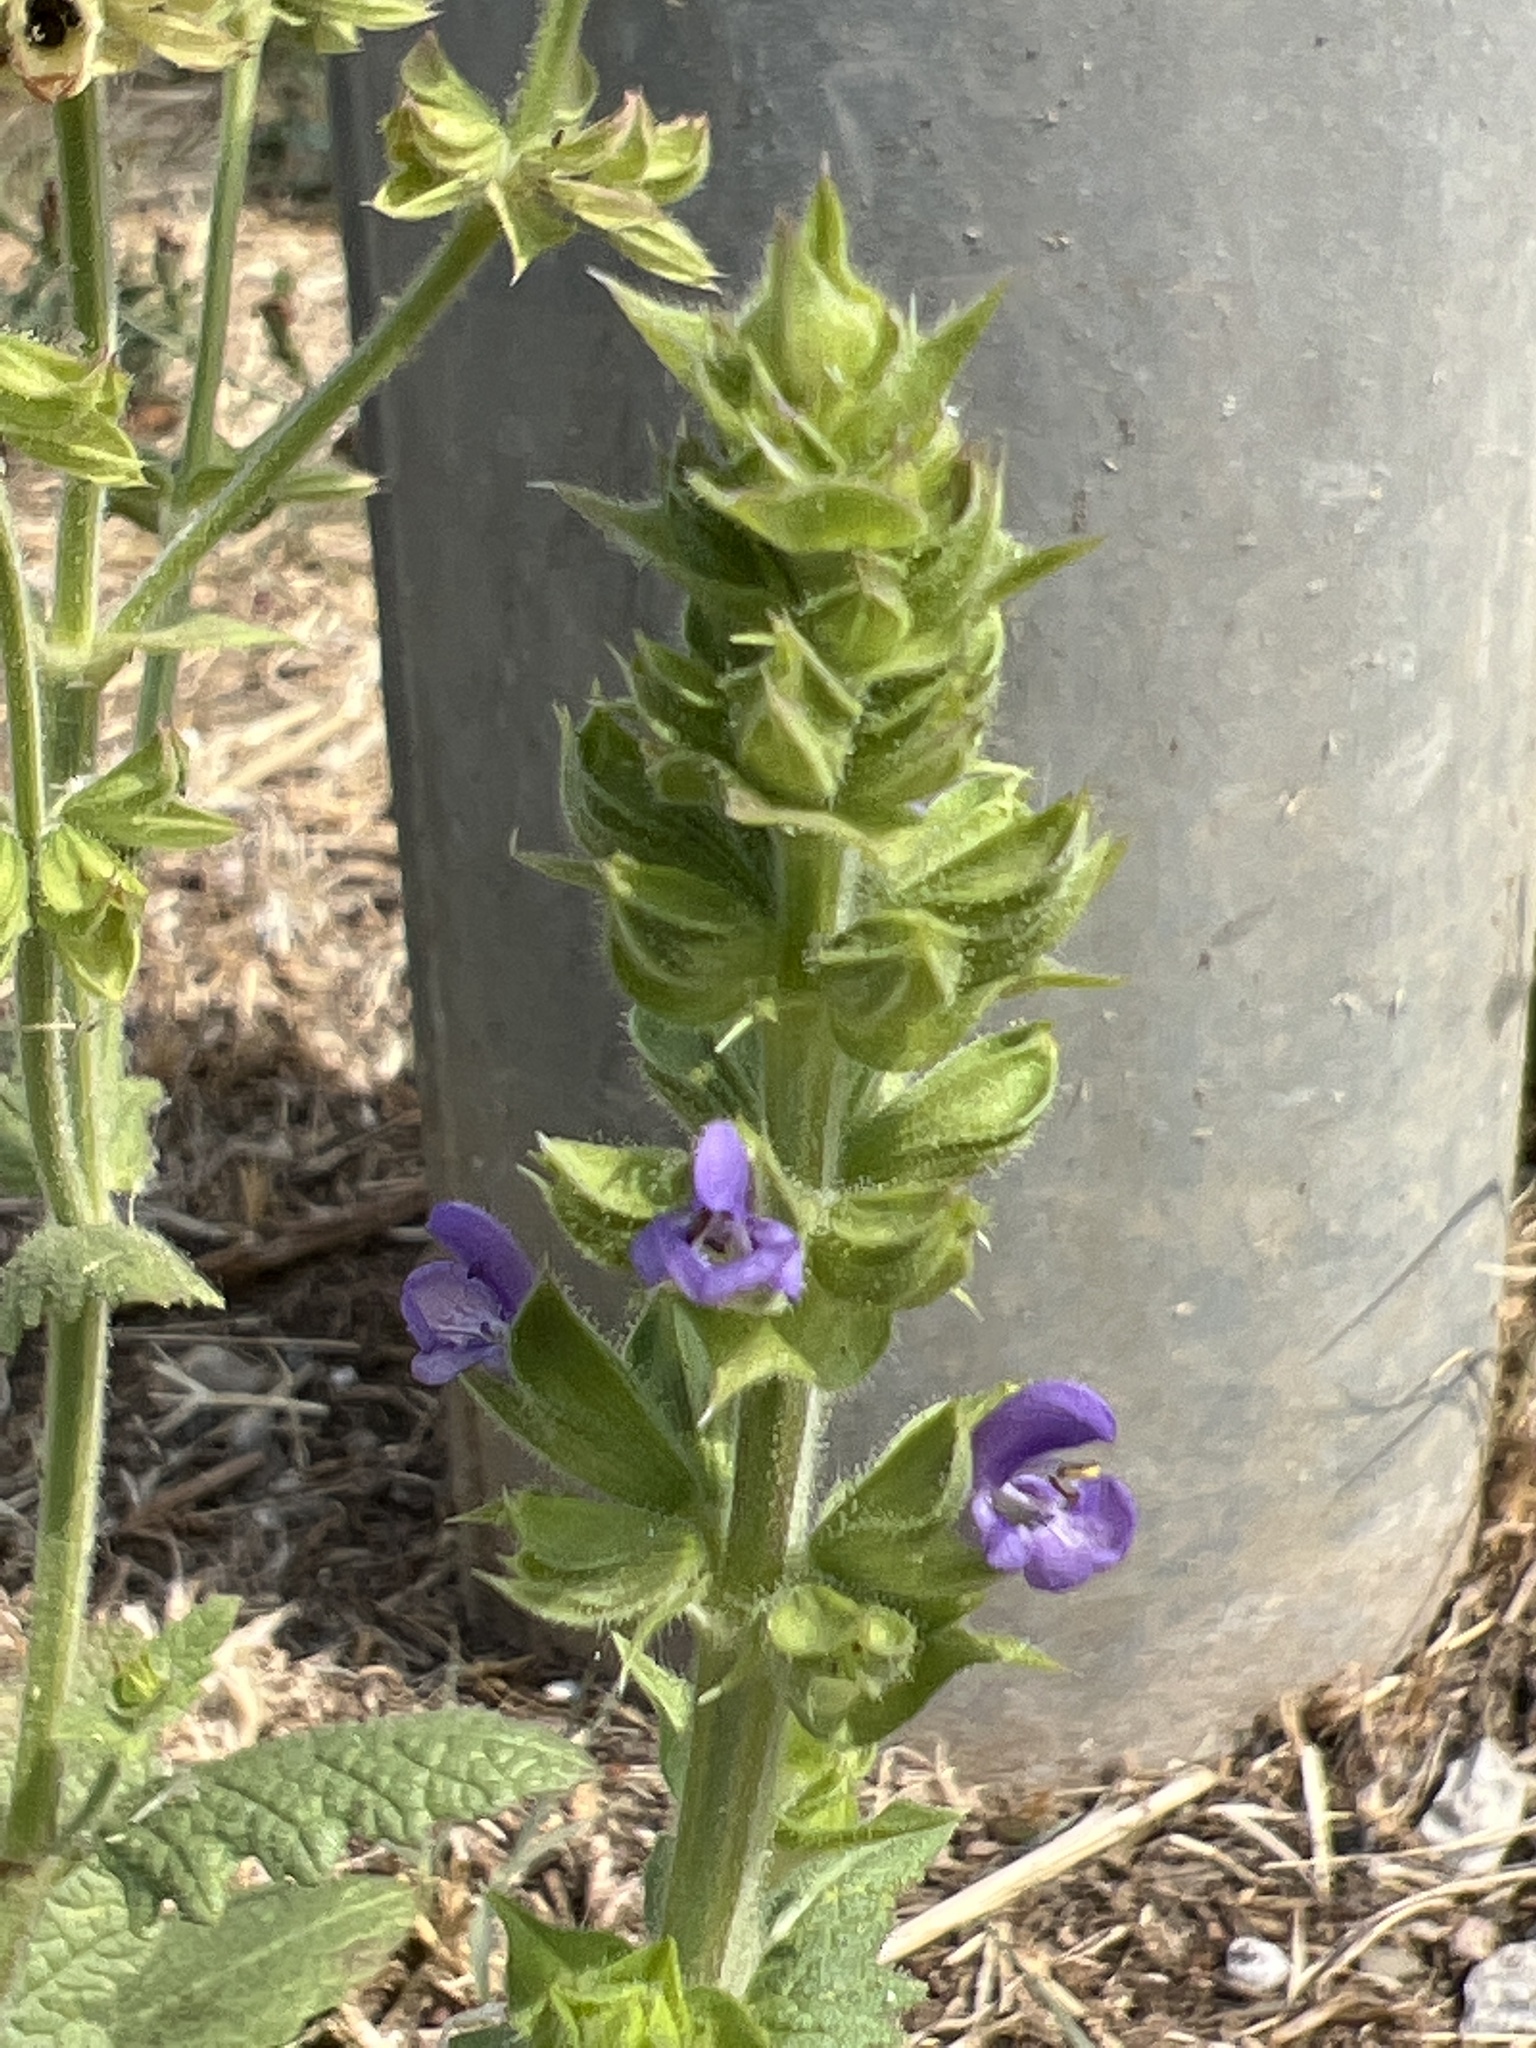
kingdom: Plantae
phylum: Tracheophyta
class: Magnoliopsida
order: Lamiales
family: Lamiaceae
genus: Salvia
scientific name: Salvia verbenaca
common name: Wild clary
